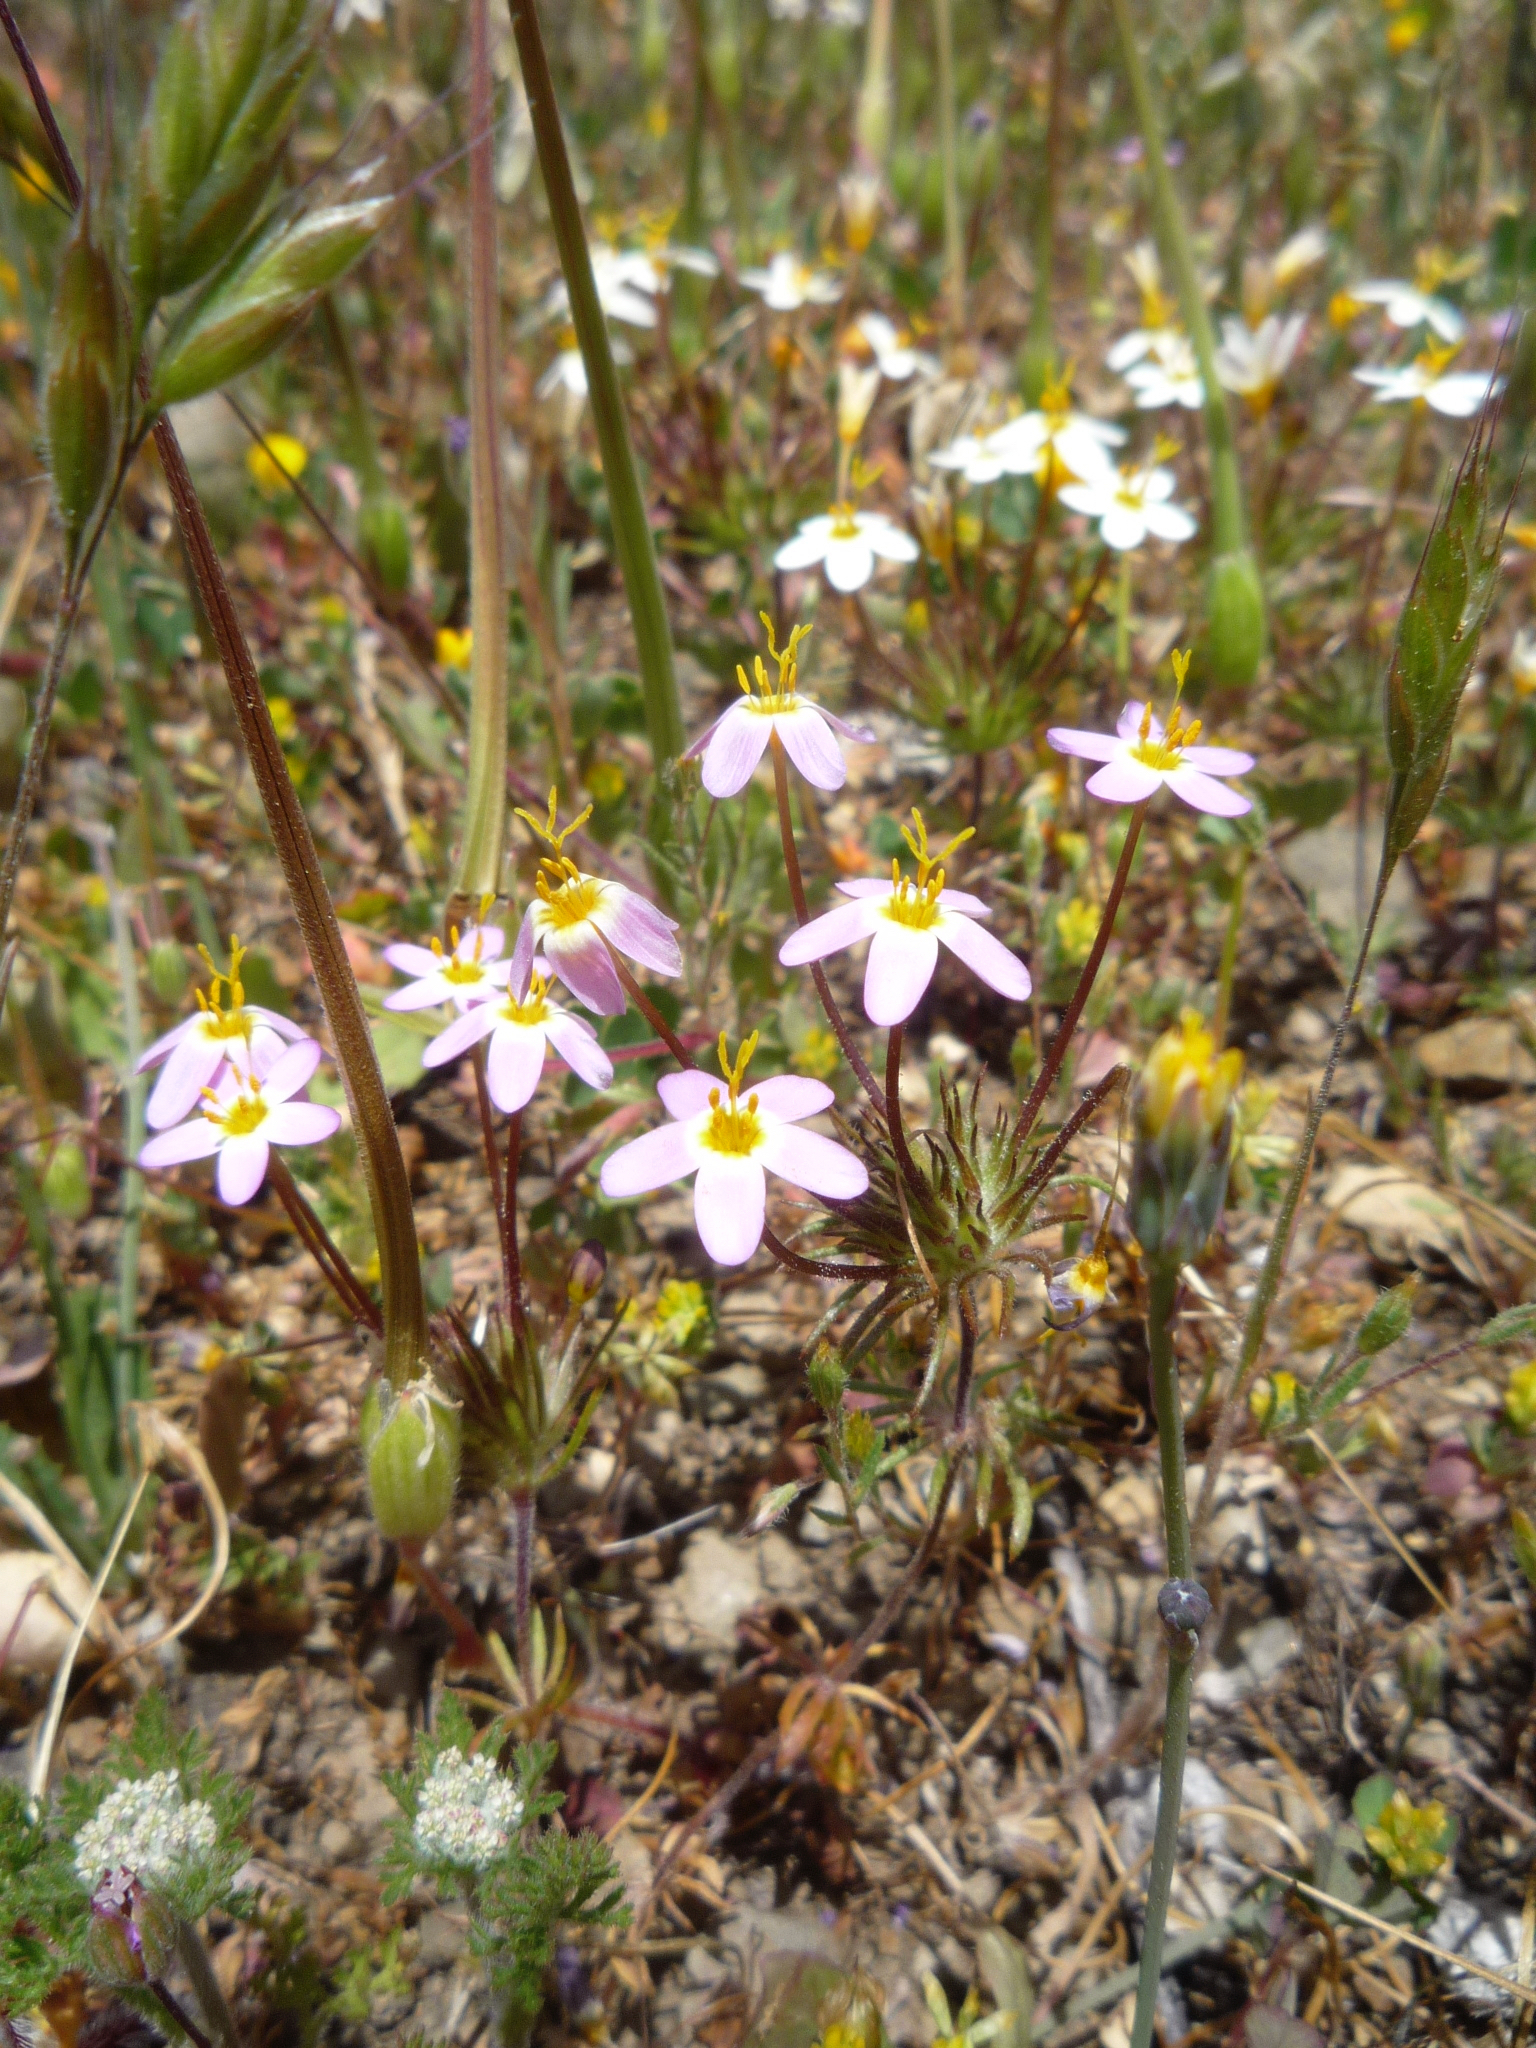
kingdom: Plantae
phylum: Tracheophyta
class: Magnoliopsida
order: Ericales
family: Polemoniaceae
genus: Leptosiphon
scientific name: Leptosiphon parviflorus
